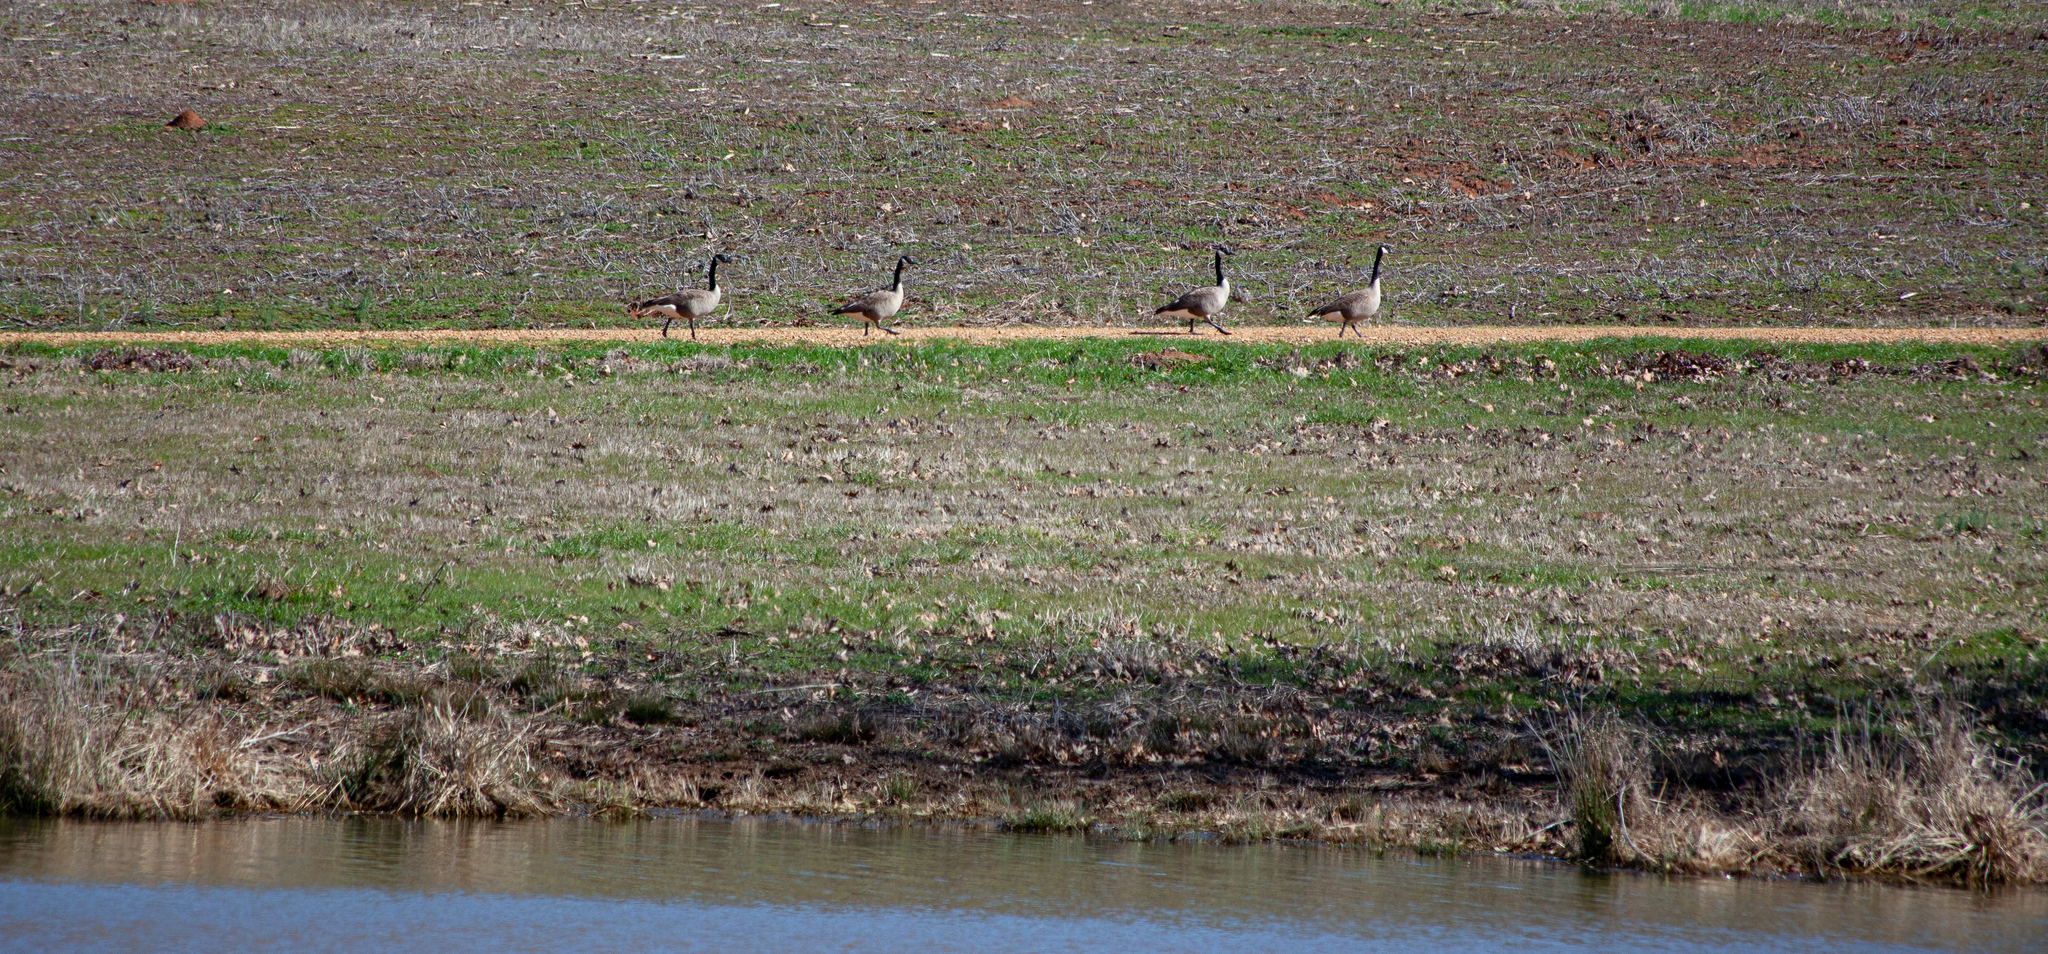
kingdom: Animalia
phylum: Chordata
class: Aves
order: Anseriformes
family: Anatidae
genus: Branta
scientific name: Branta canadensis
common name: Canada goose
